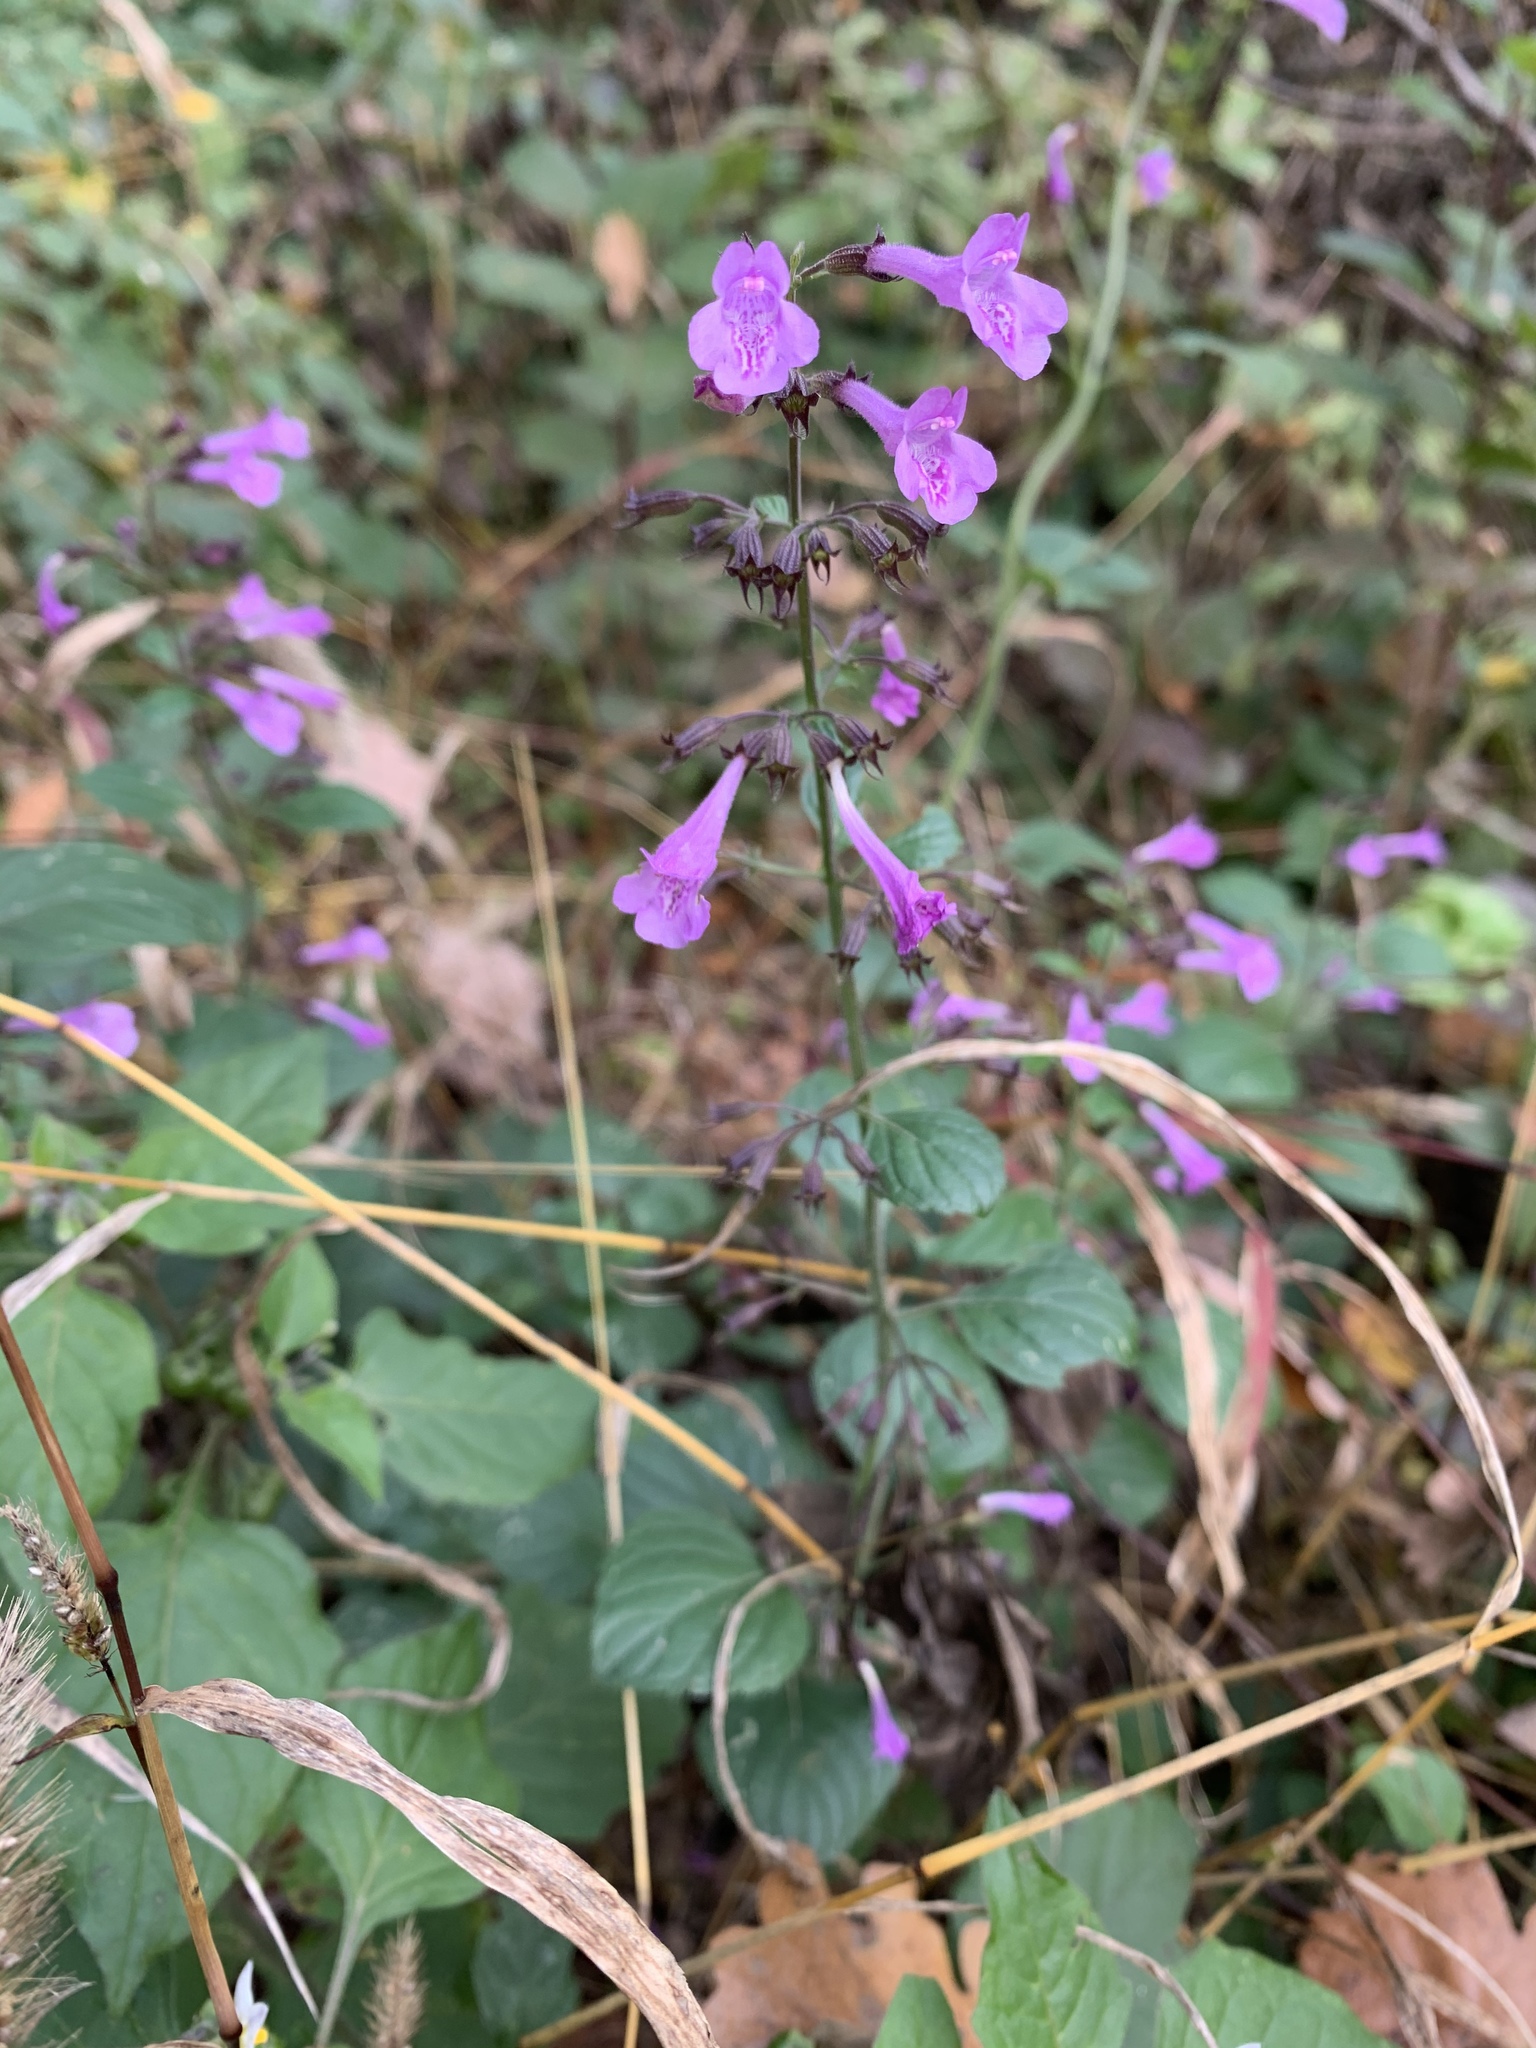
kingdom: Plantae
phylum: Tracheophyta
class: Magnoliopsida
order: Lamiales
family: Lamiaceae
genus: Clinopodium
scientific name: Clinopodium menthifolium
